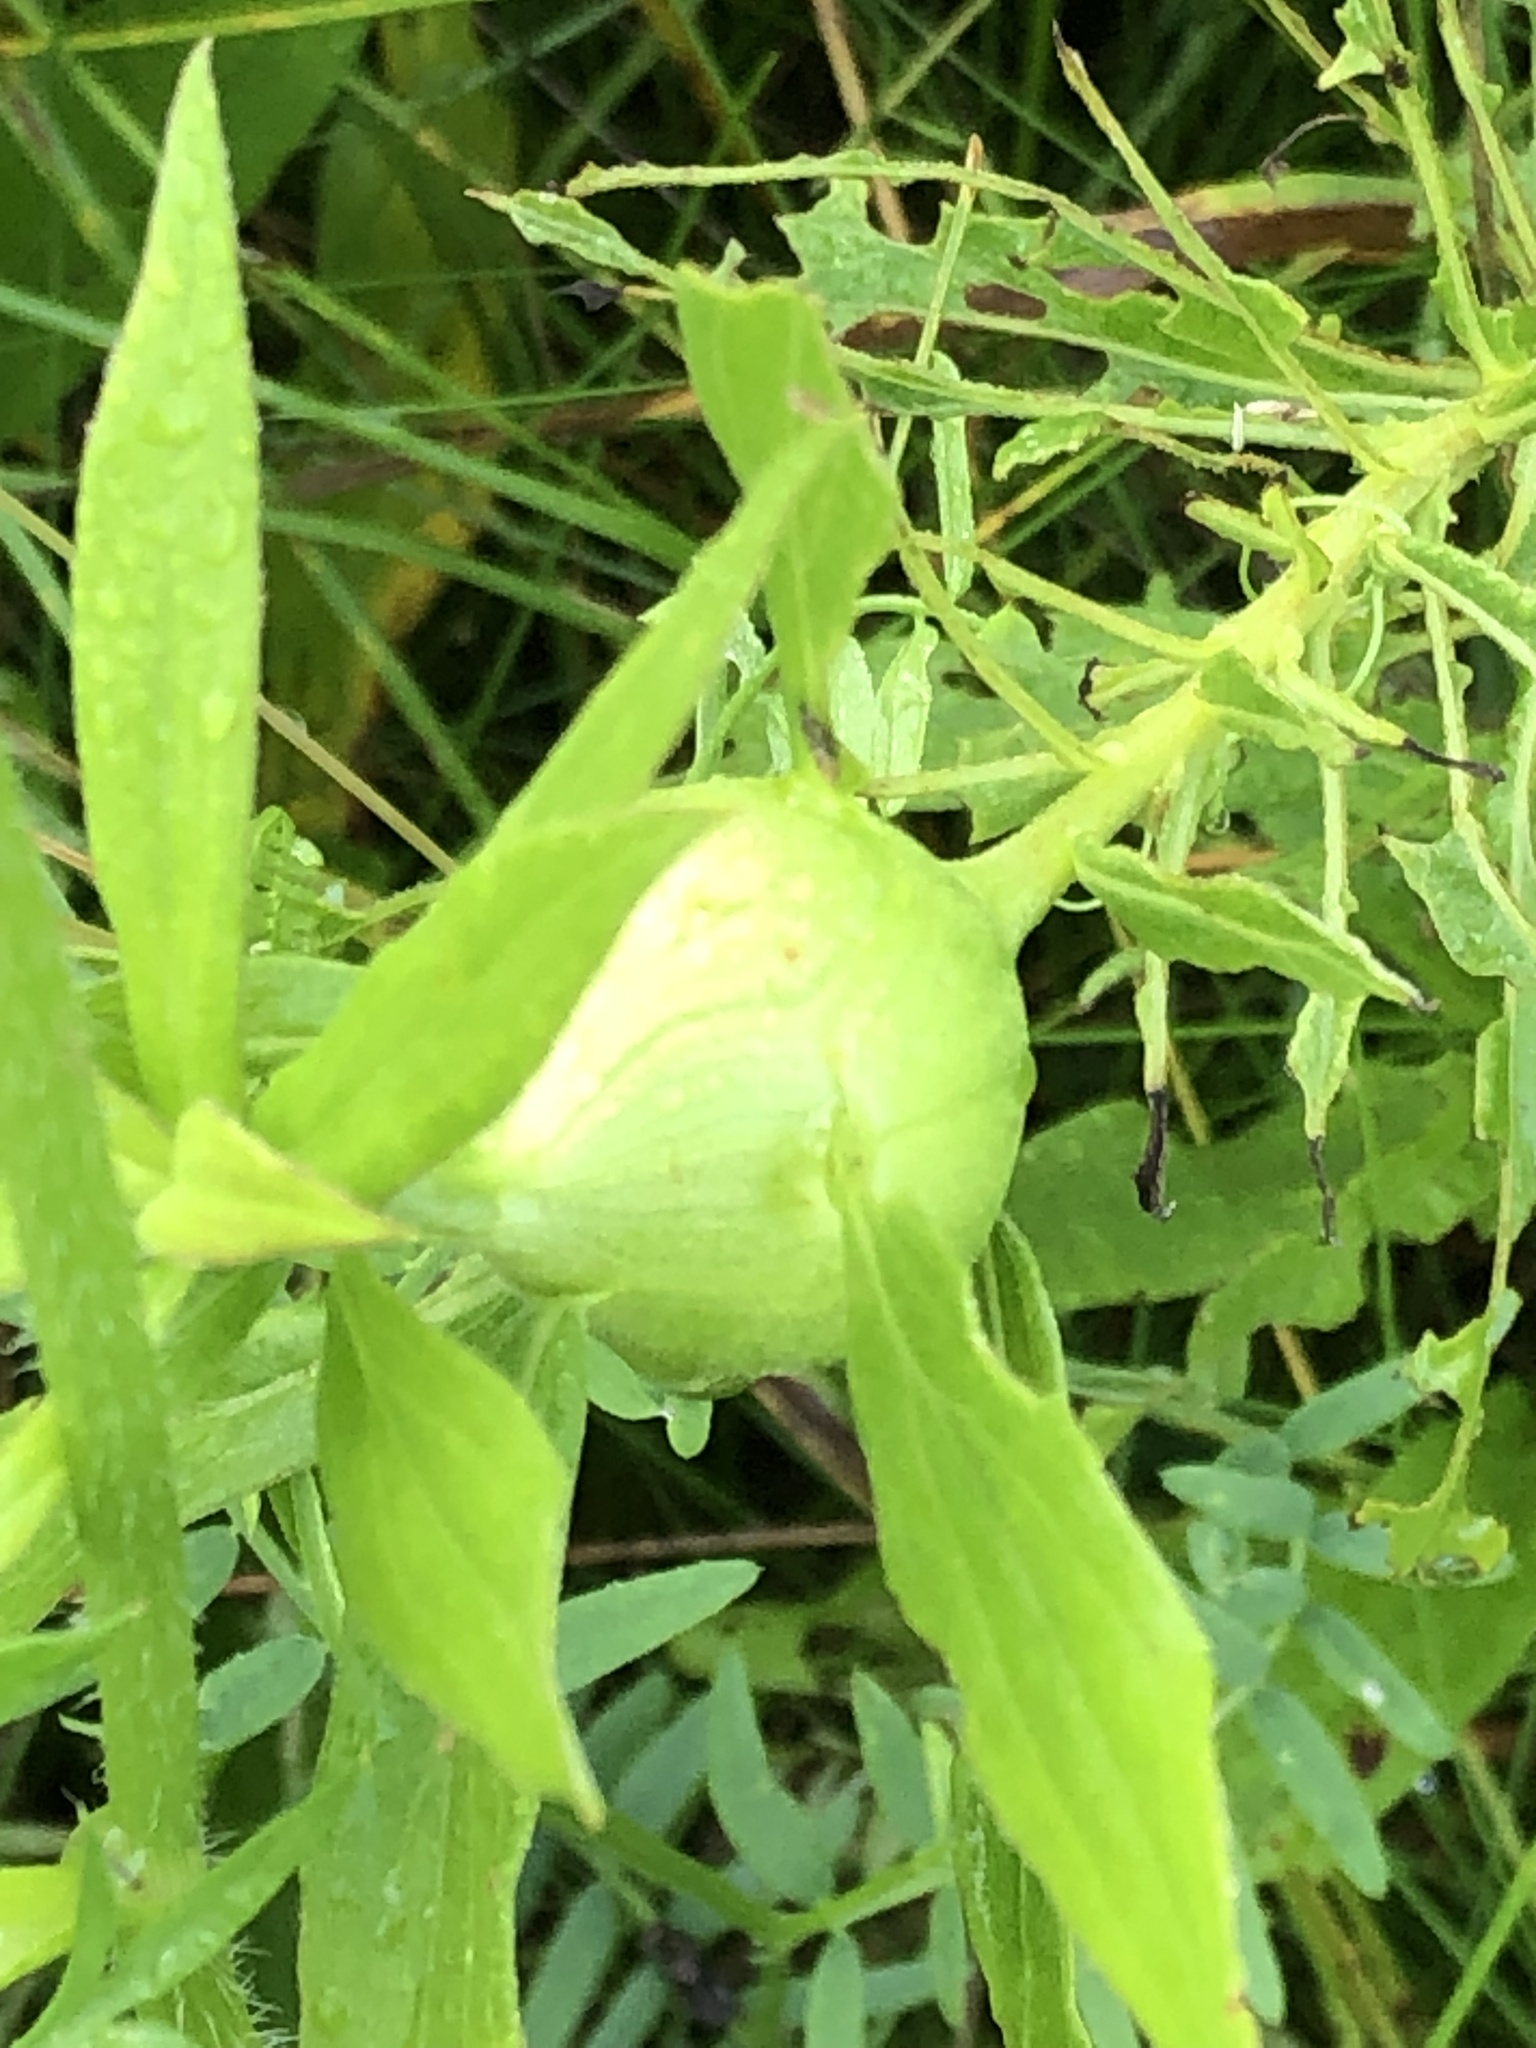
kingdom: Animalia
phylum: Arthropoda
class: Insecta
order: Diptera
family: Tephritidae
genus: Eurosta
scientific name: Eurosta solidaginis
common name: Goldenrod gall fly
